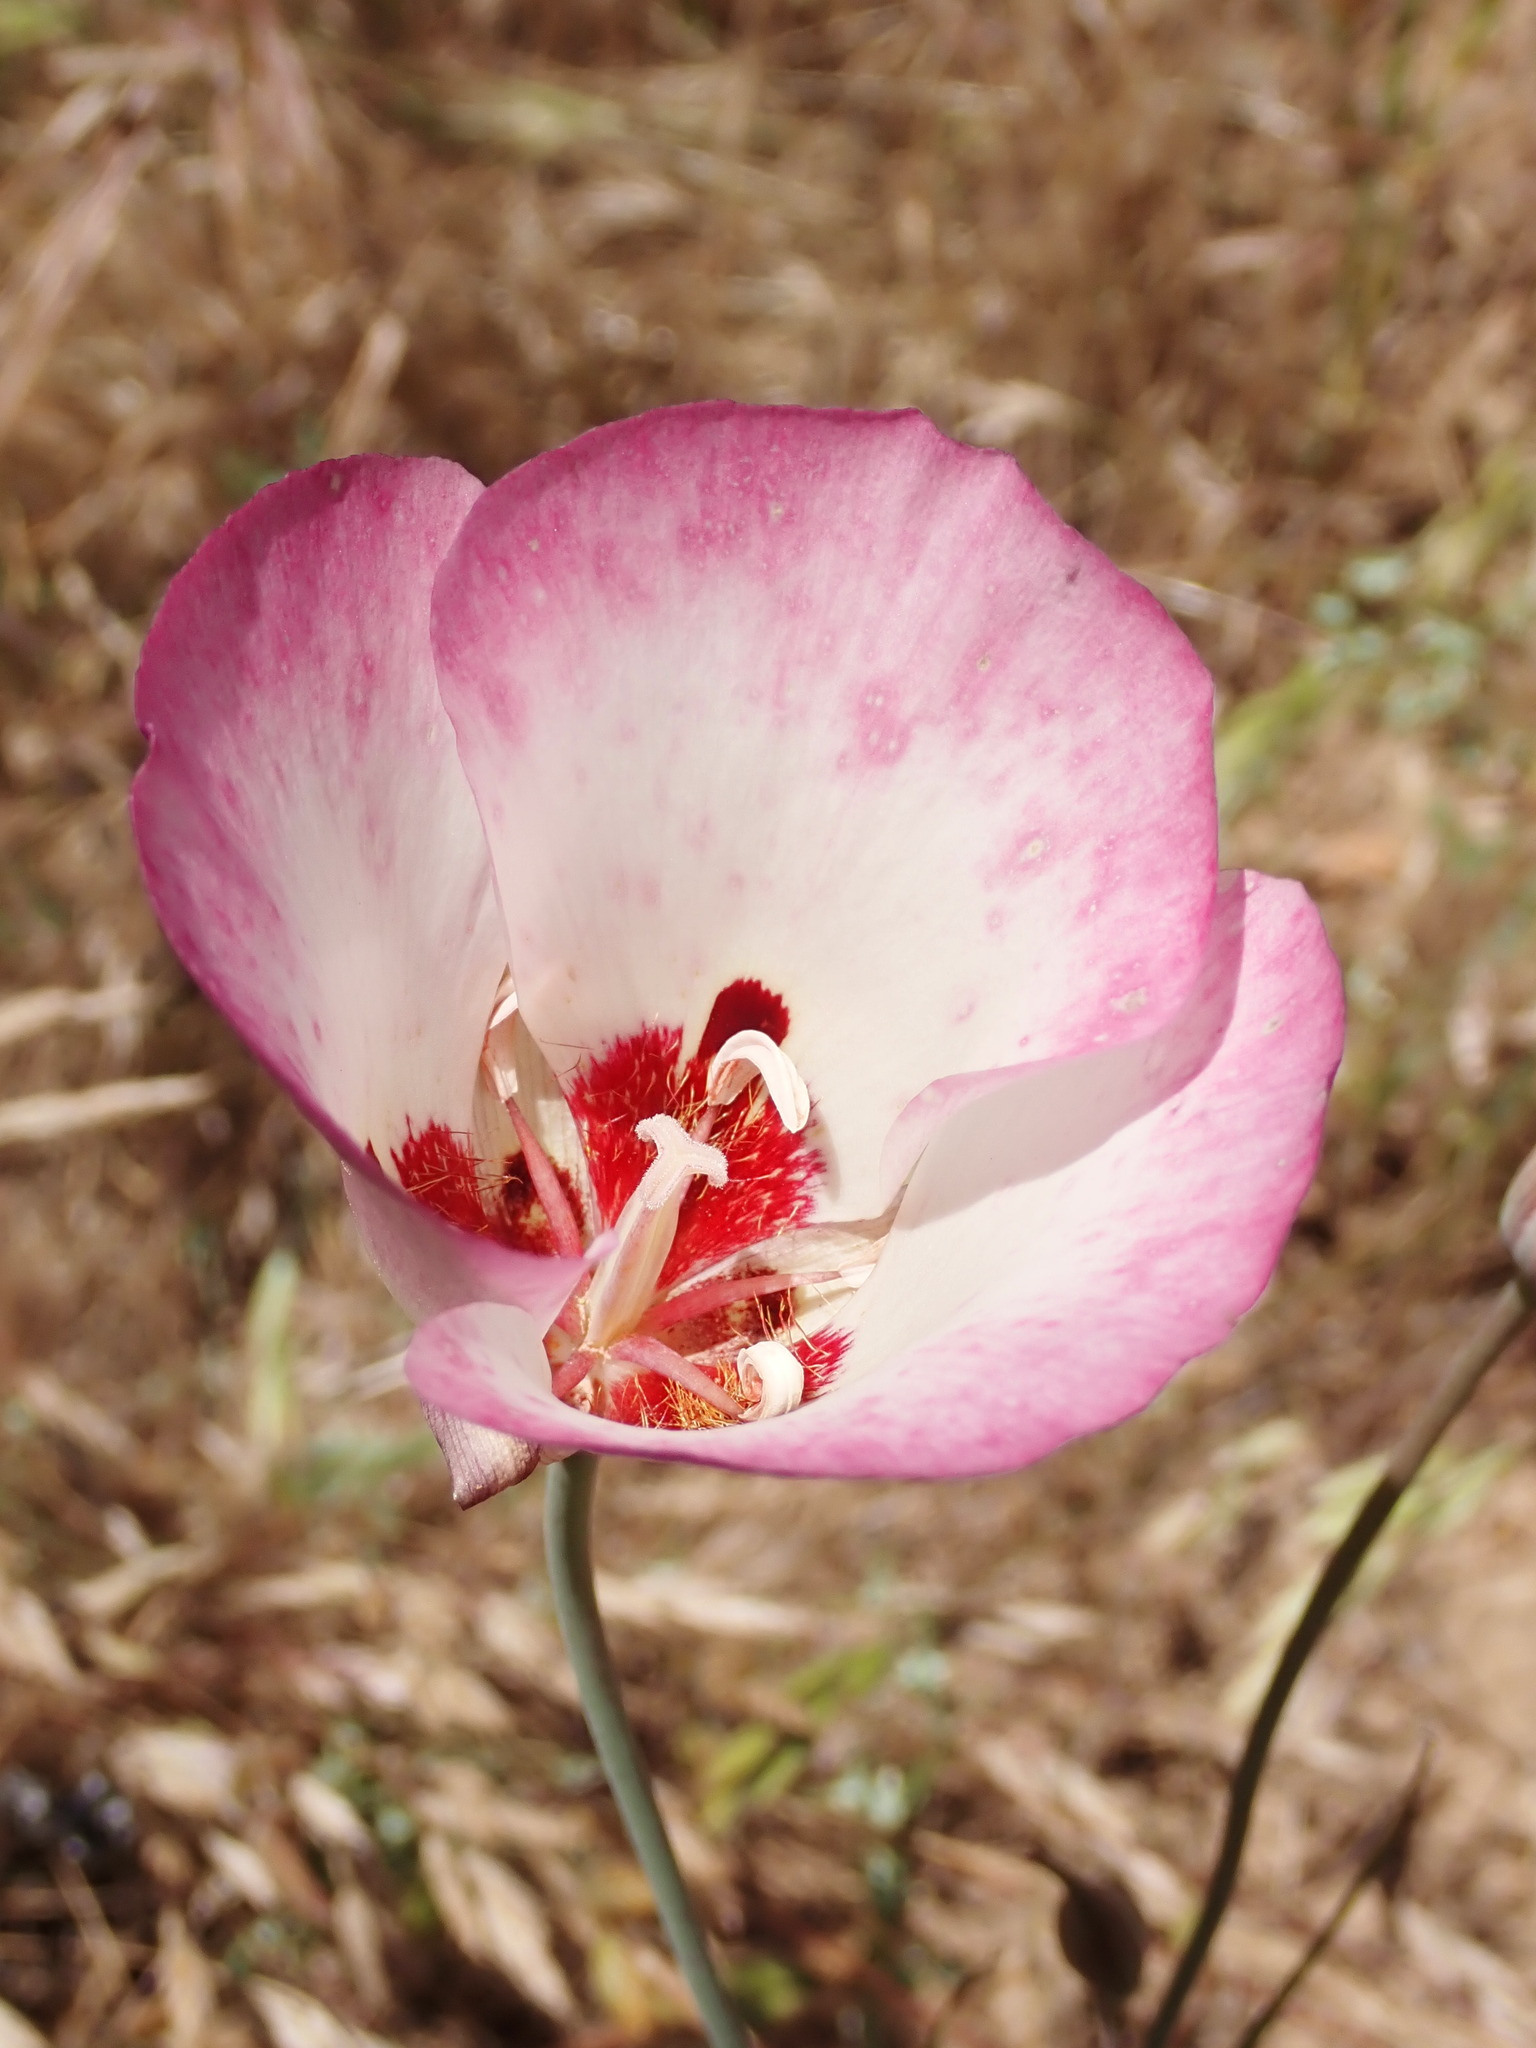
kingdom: Plantae
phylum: Tracheophyta
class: Liliopsida
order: Liliales
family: Liliaceae
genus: Calochortus
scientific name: Calochortus simulans
